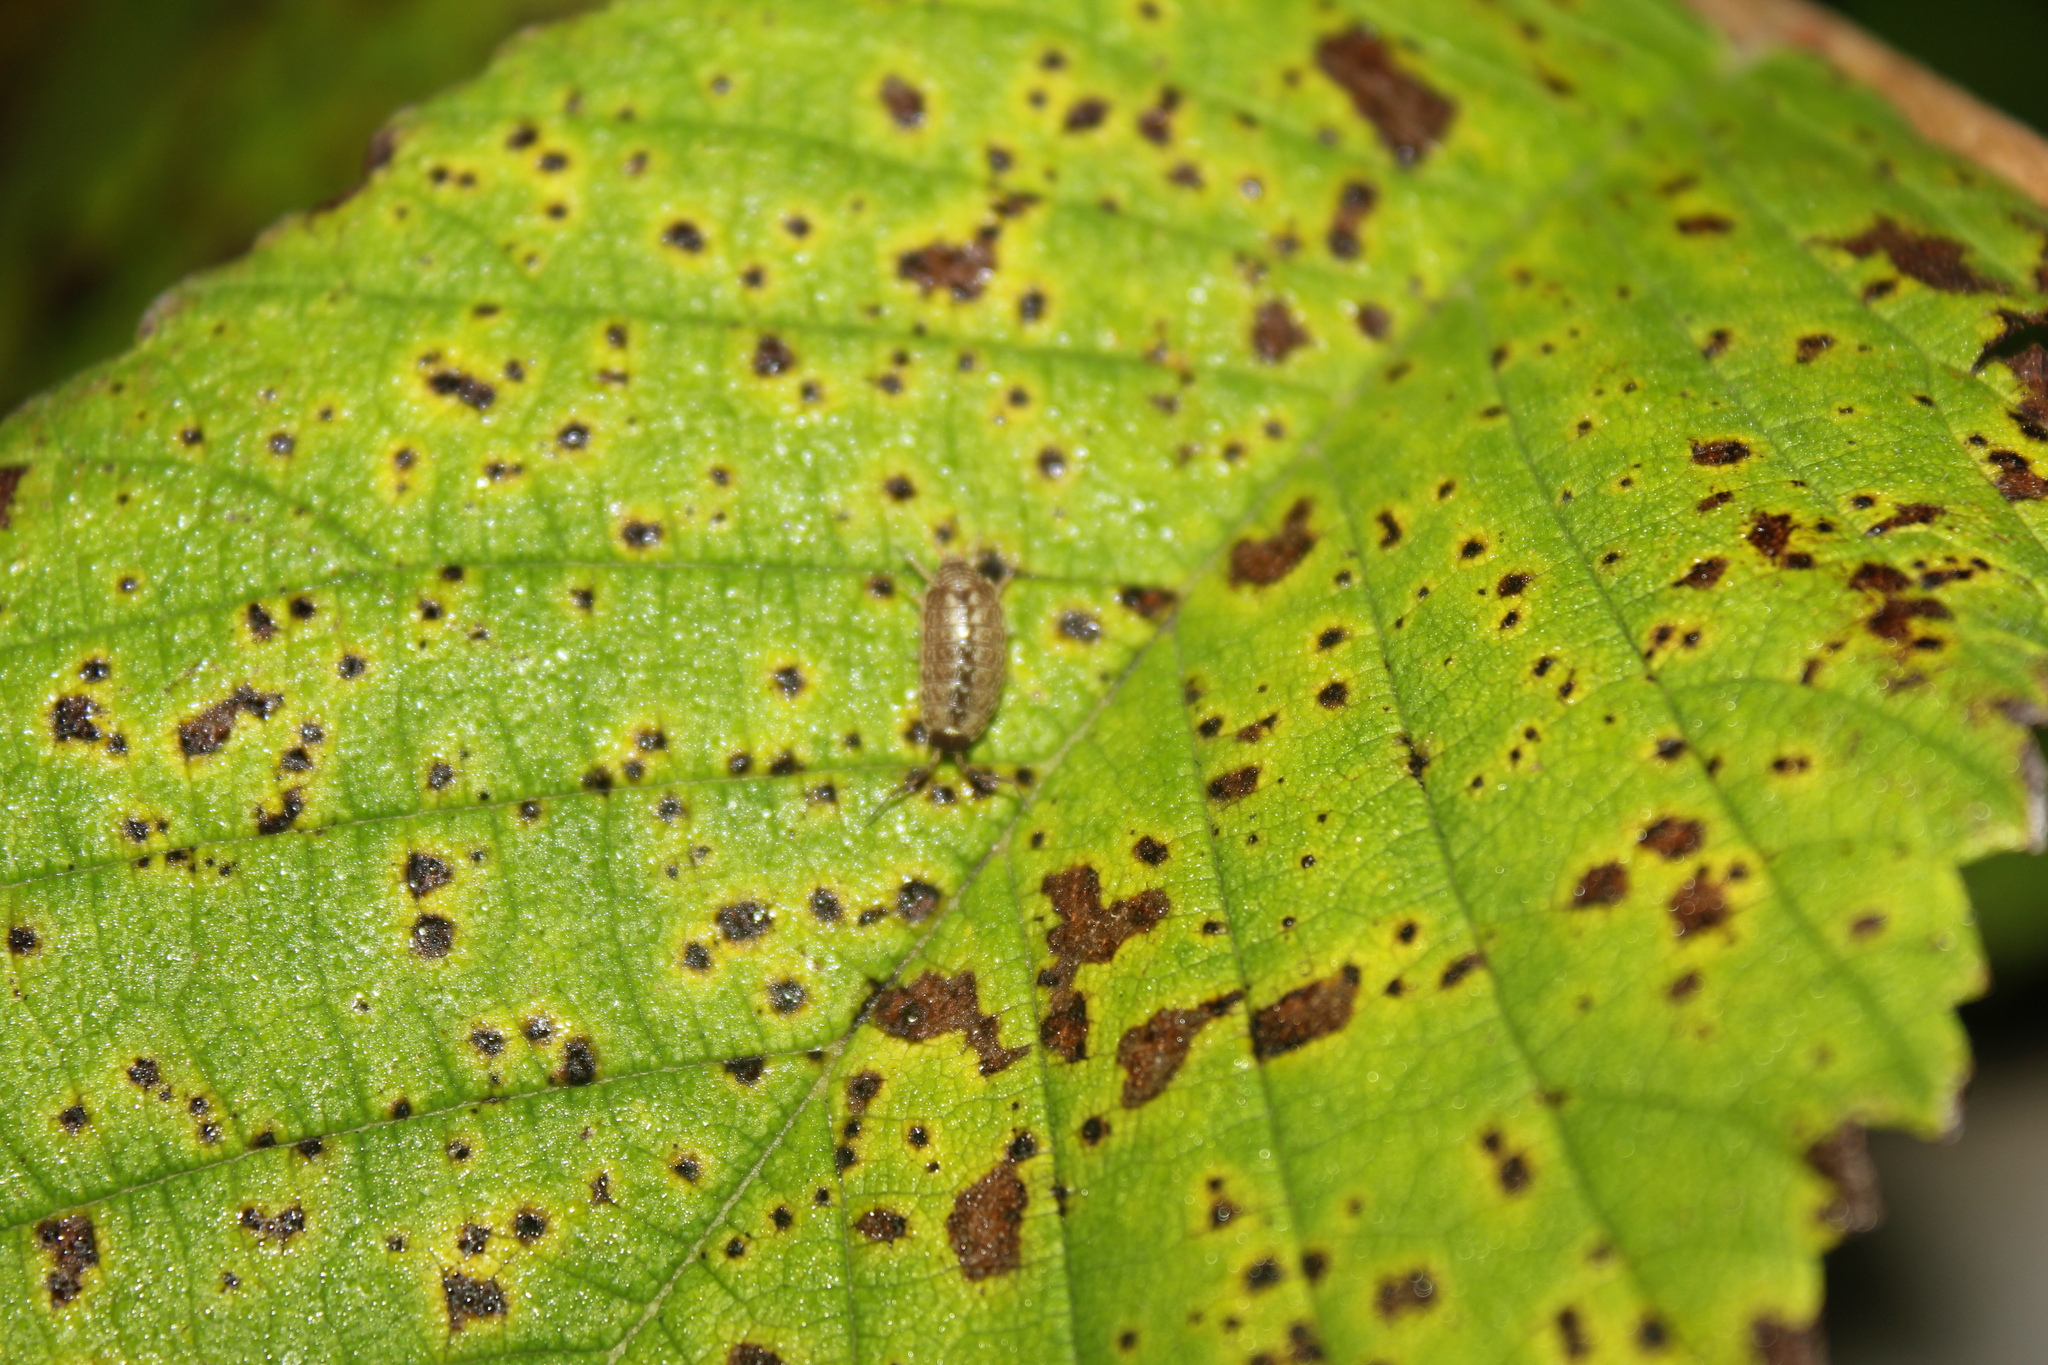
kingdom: Animalia
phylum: Arthropoda
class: Malacostraca
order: Isopoda
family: Philosciidae
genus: Philoscia
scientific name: Philoscia muscorum
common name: Common striped woodlouse
